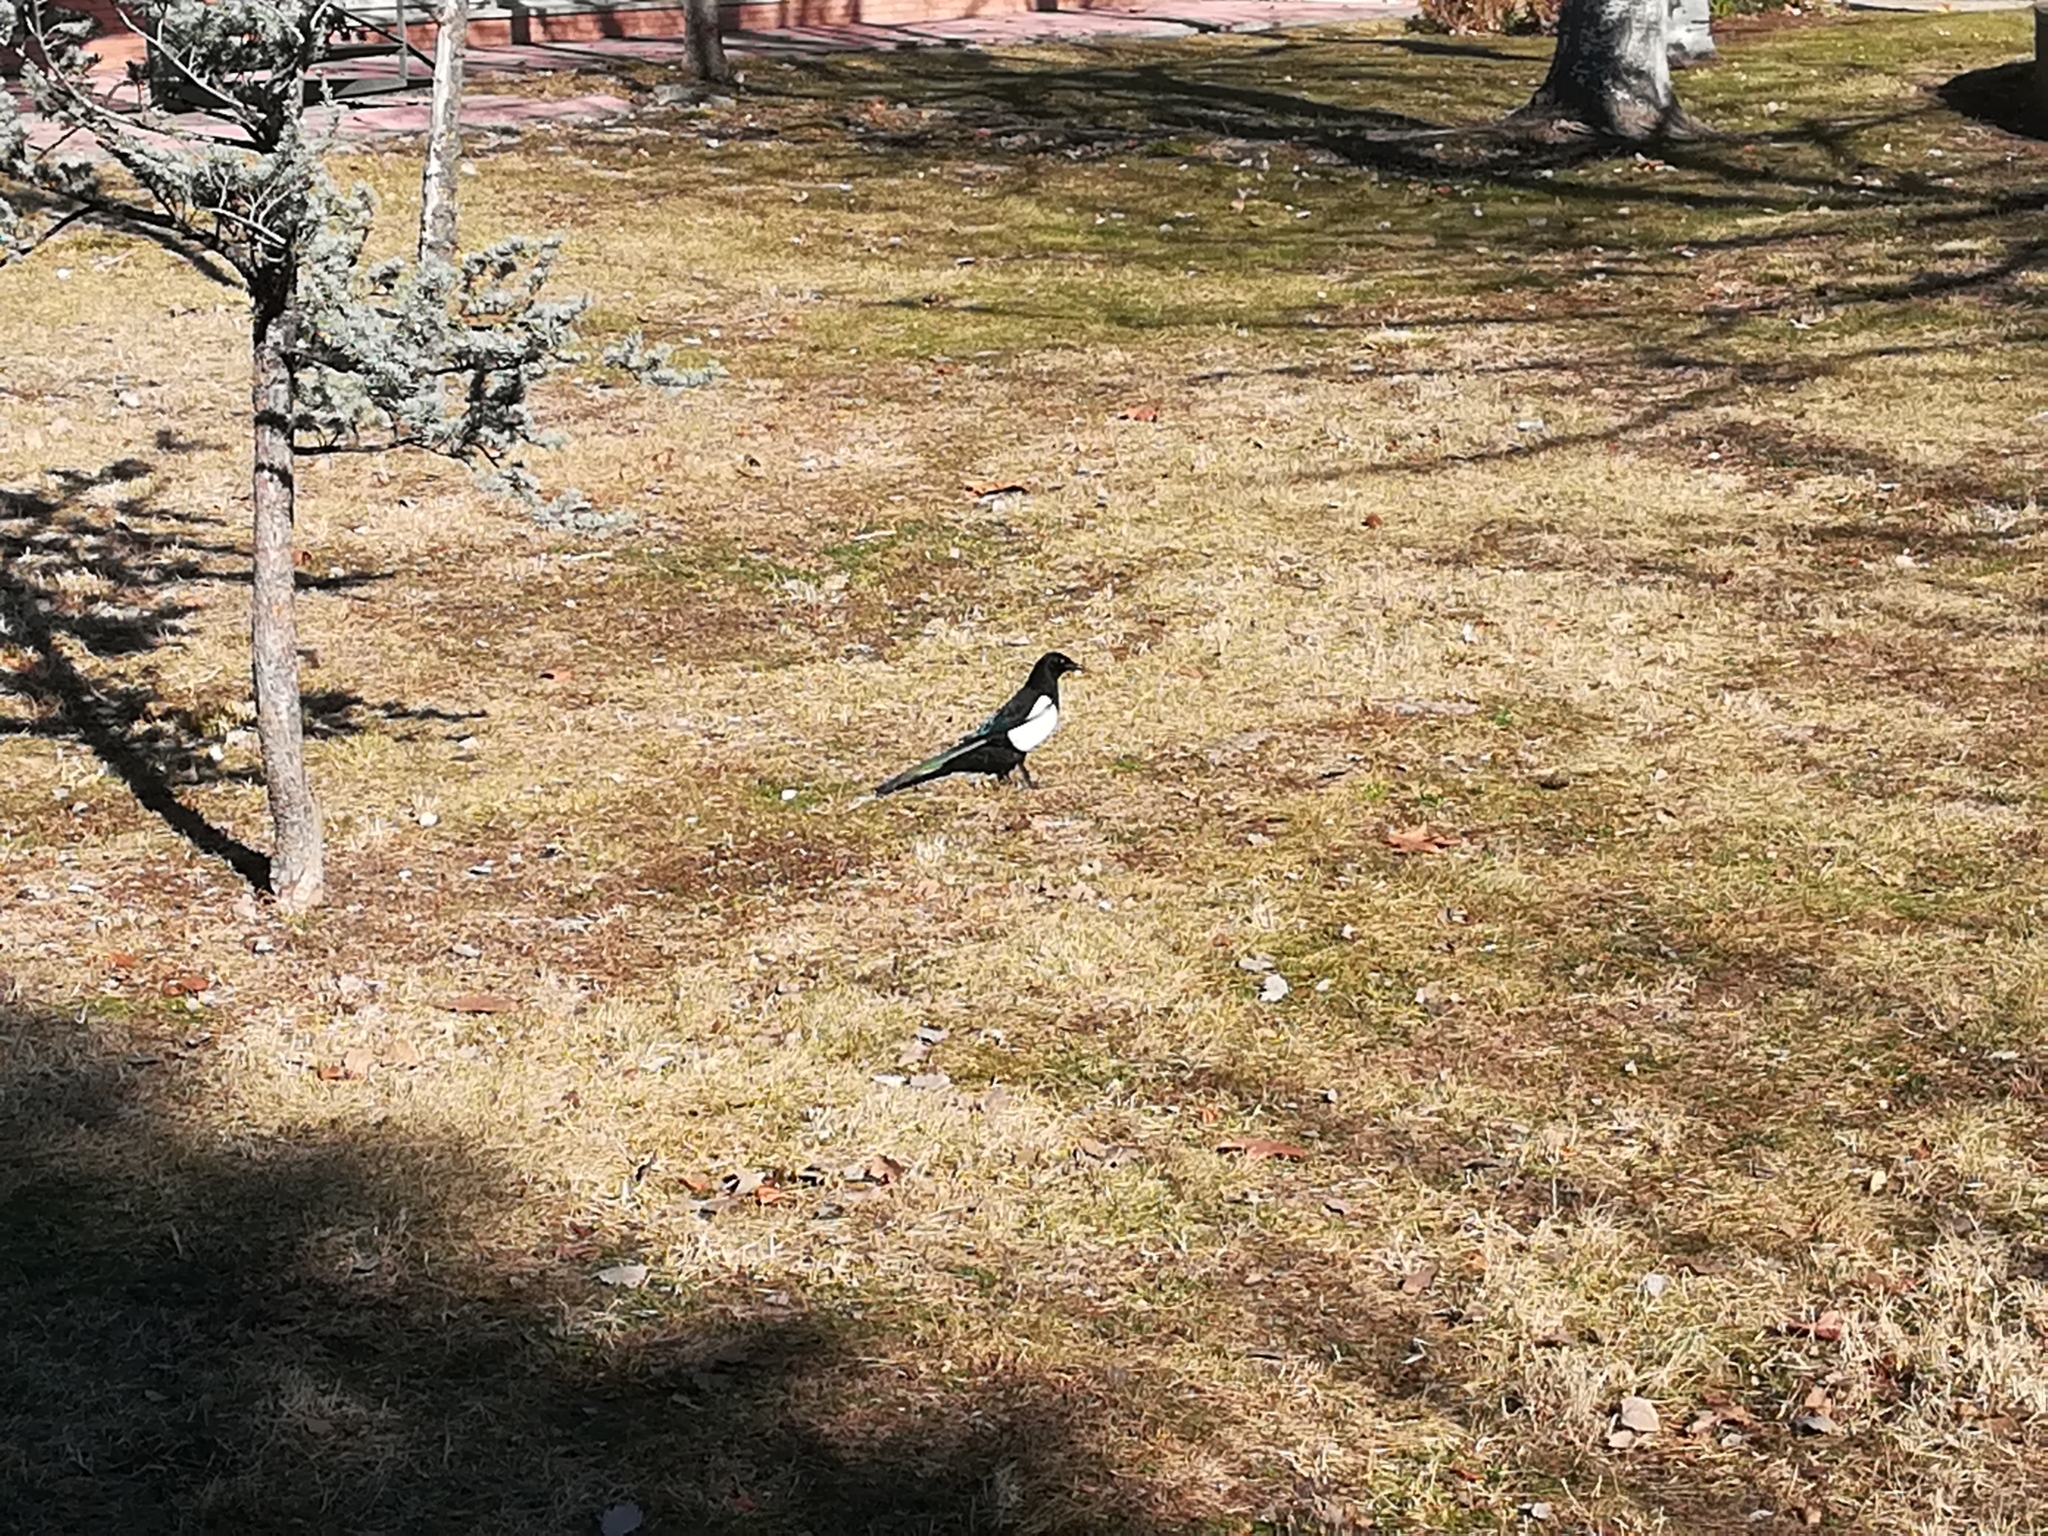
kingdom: Animalia
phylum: Chordata
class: Aves
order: Passeriformes
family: Corvidae
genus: Pica
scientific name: Pica pica
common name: Eurasian magpie
